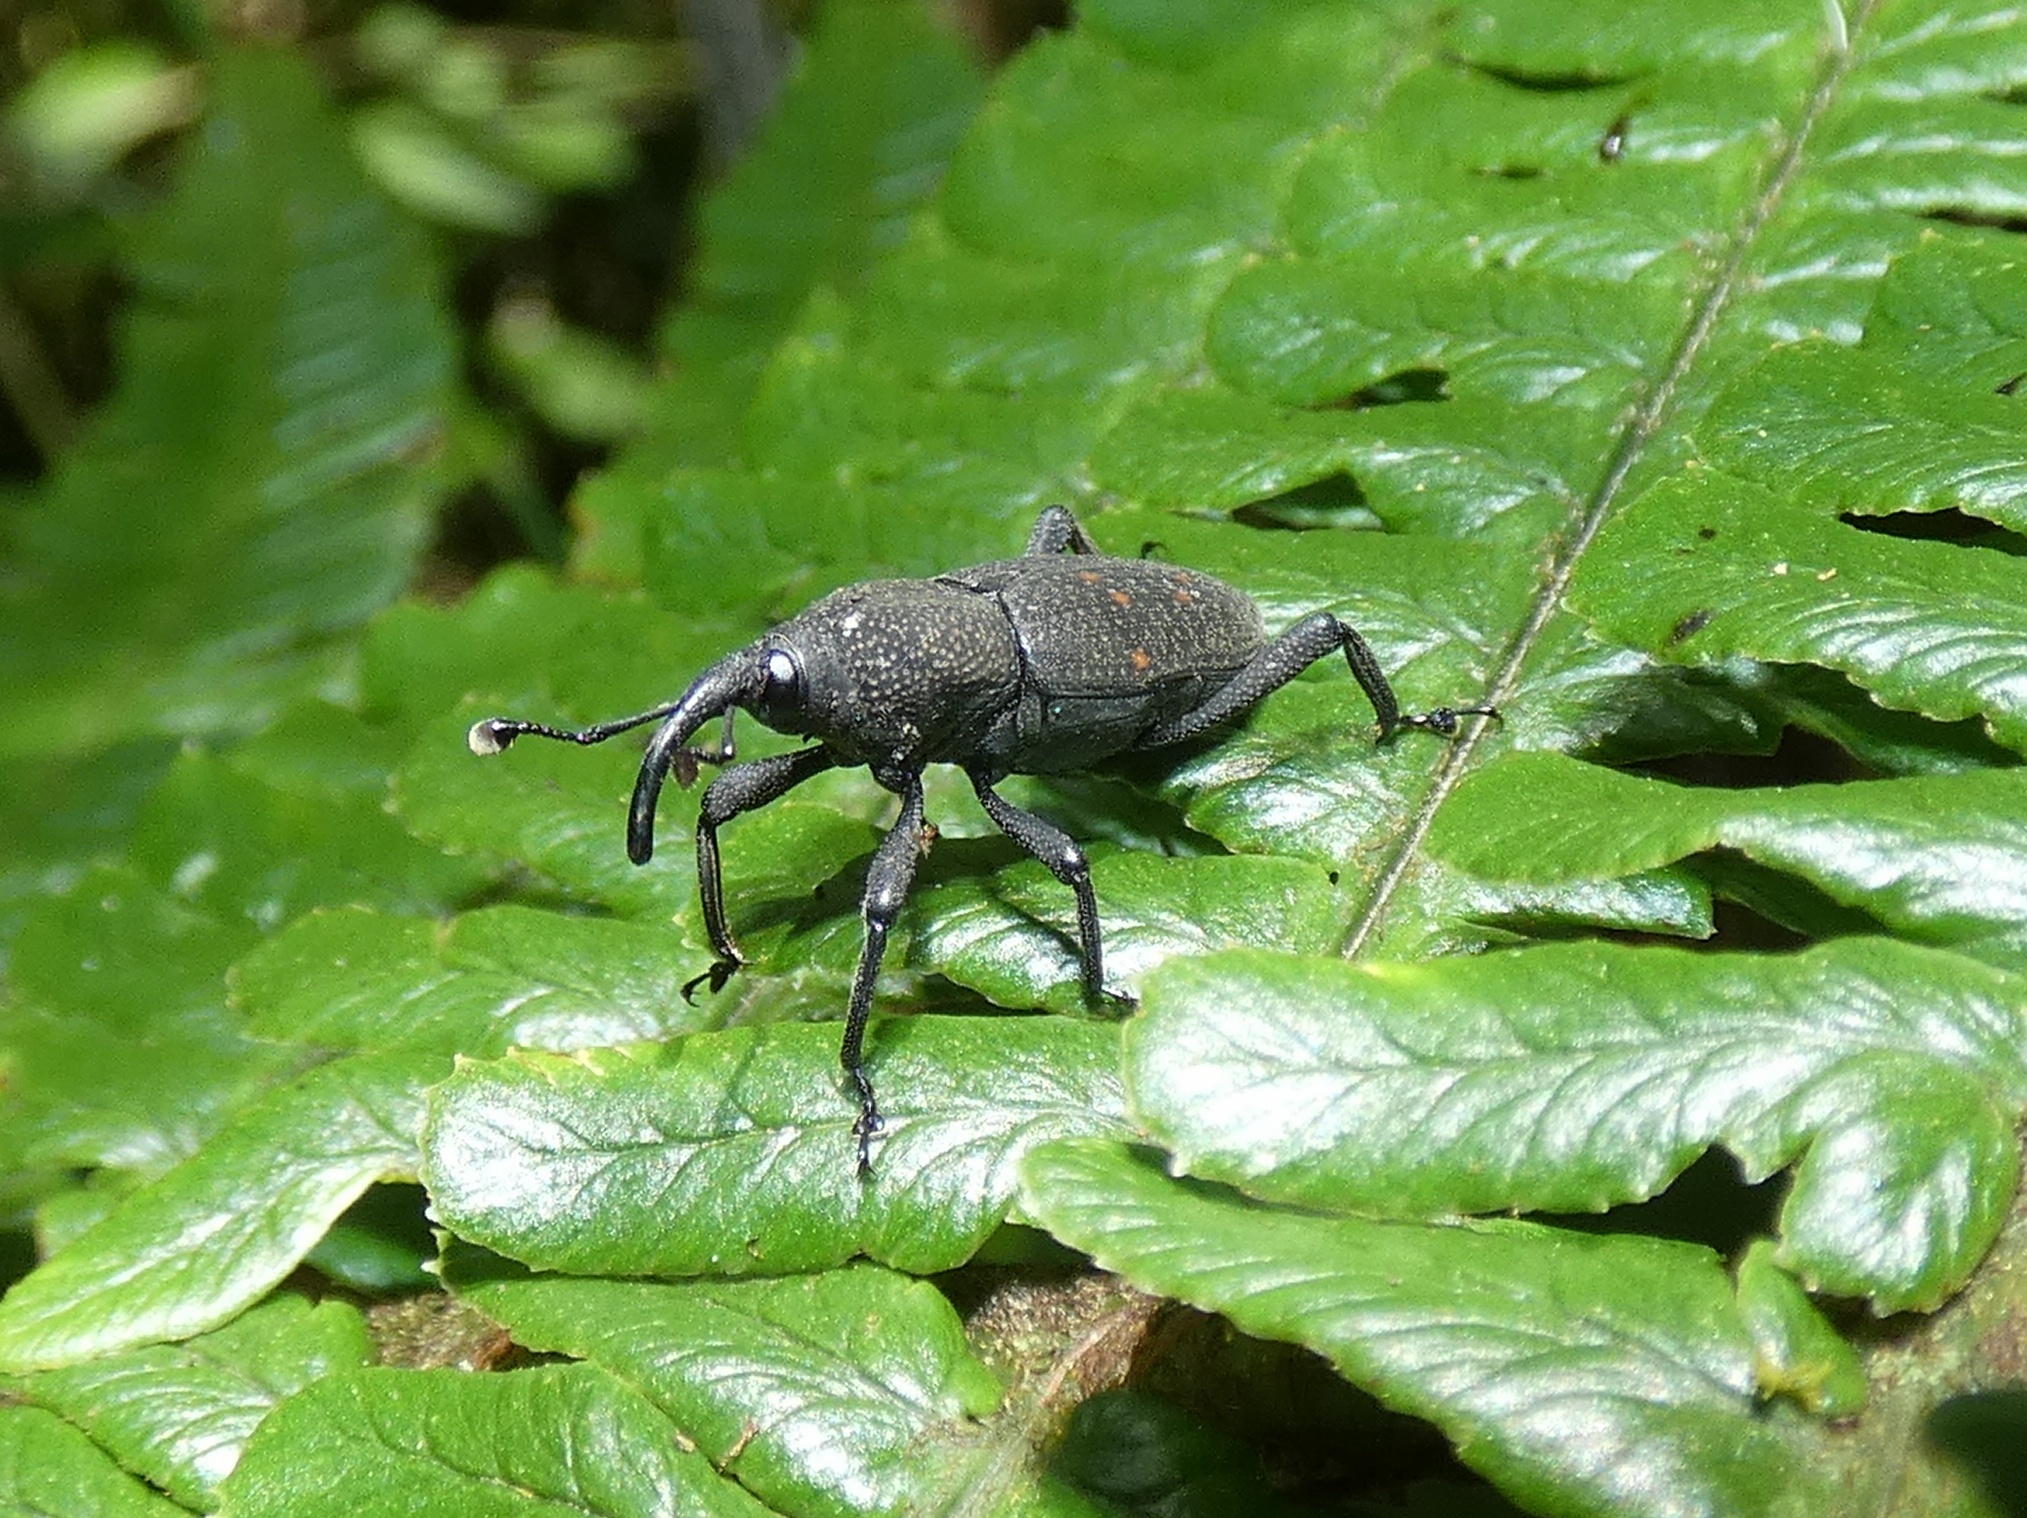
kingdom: Animalia
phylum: Arthropoda
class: Insecta
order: Coleoptera
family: Dryophthoridae
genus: Cactophagus
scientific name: Cactophagus validirostris
